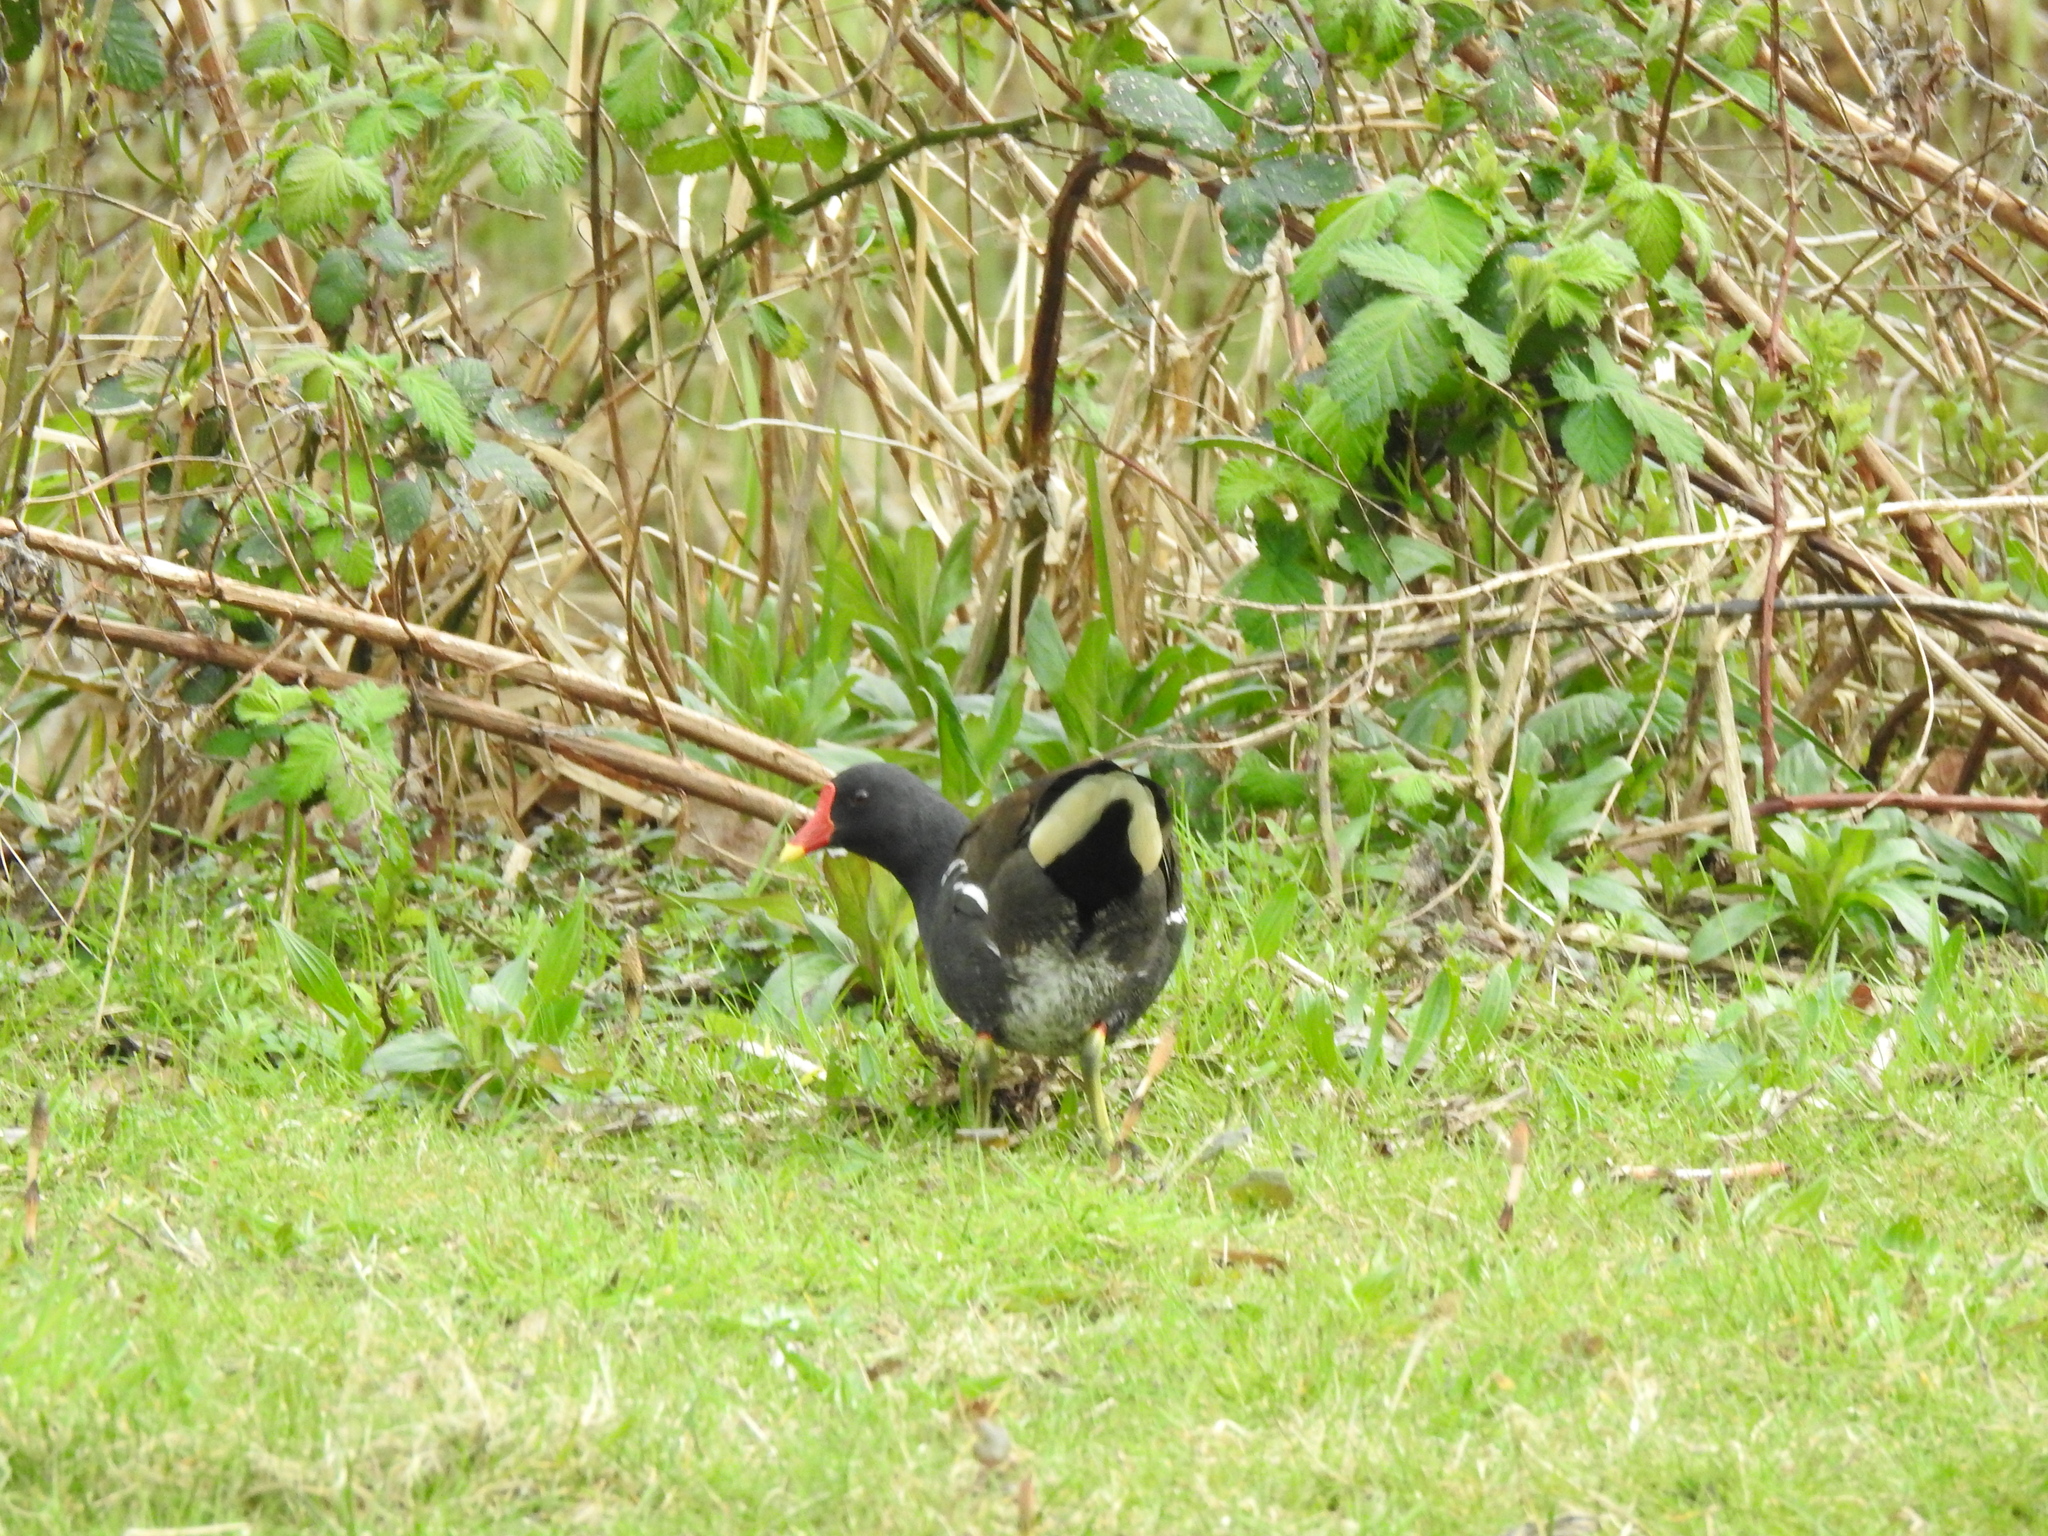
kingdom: Animalia
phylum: Chordata
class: Aves
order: Gruiformes
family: Rallidae
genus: Gallinula
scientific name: Gallinula chloropus
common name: Common moorhen
